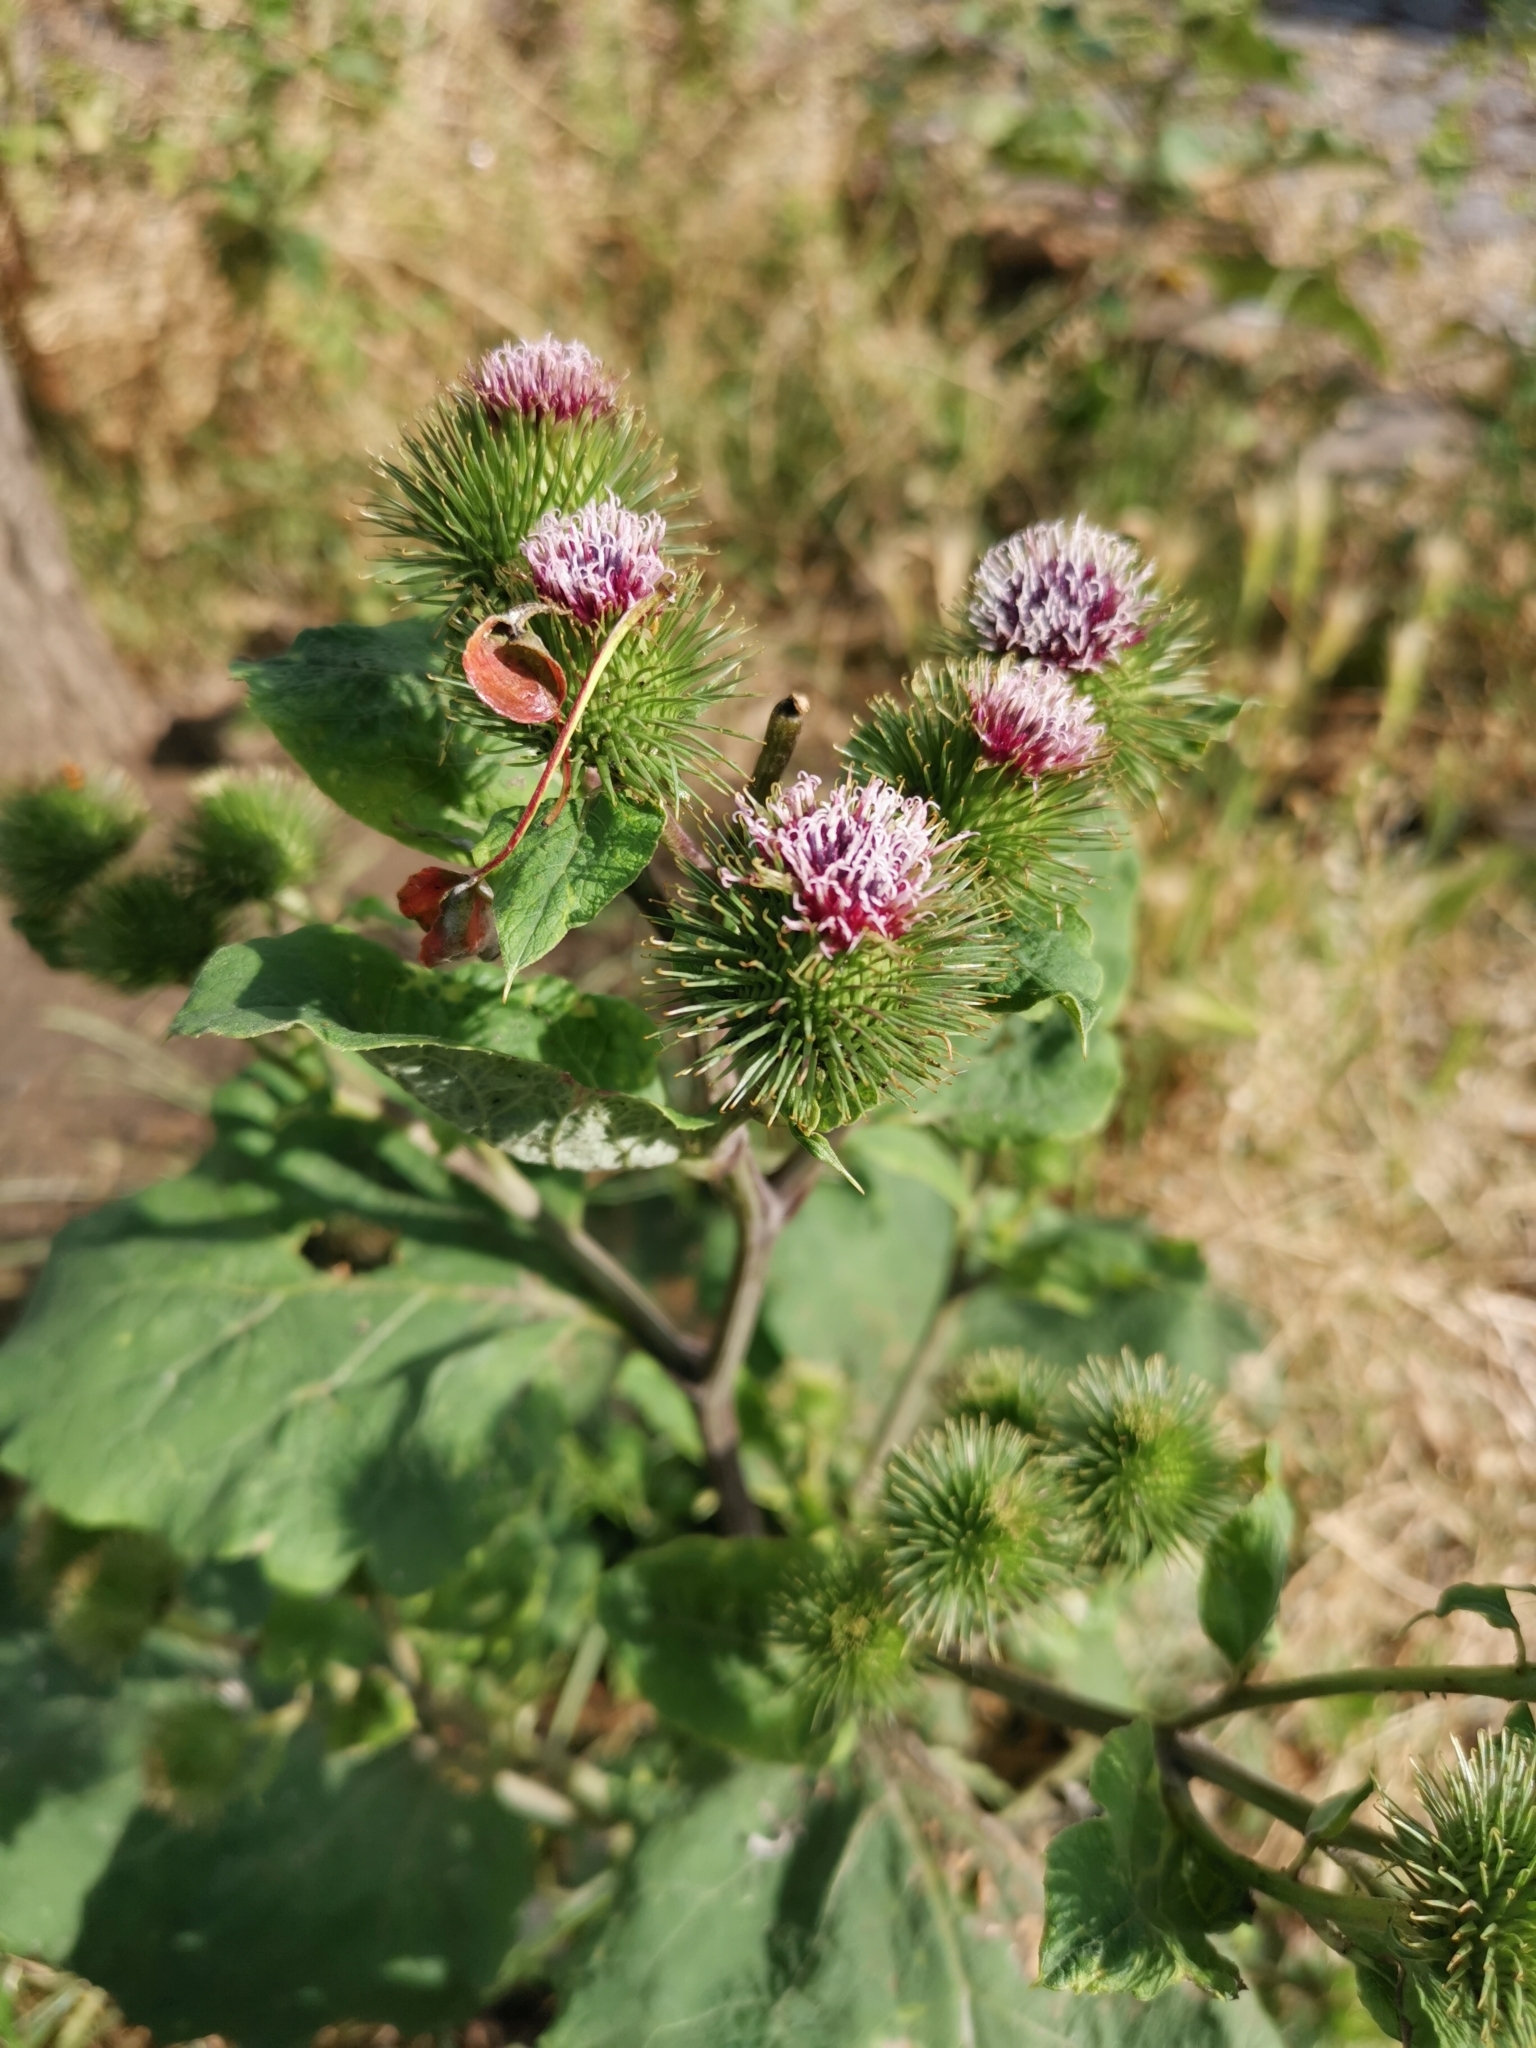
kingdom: Plantae
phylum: Tracheophyta
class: Magnoliopsida
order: Asterales
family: Asteraceae
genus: Arctium
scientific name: Arctium lappa
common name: Greater burdock
